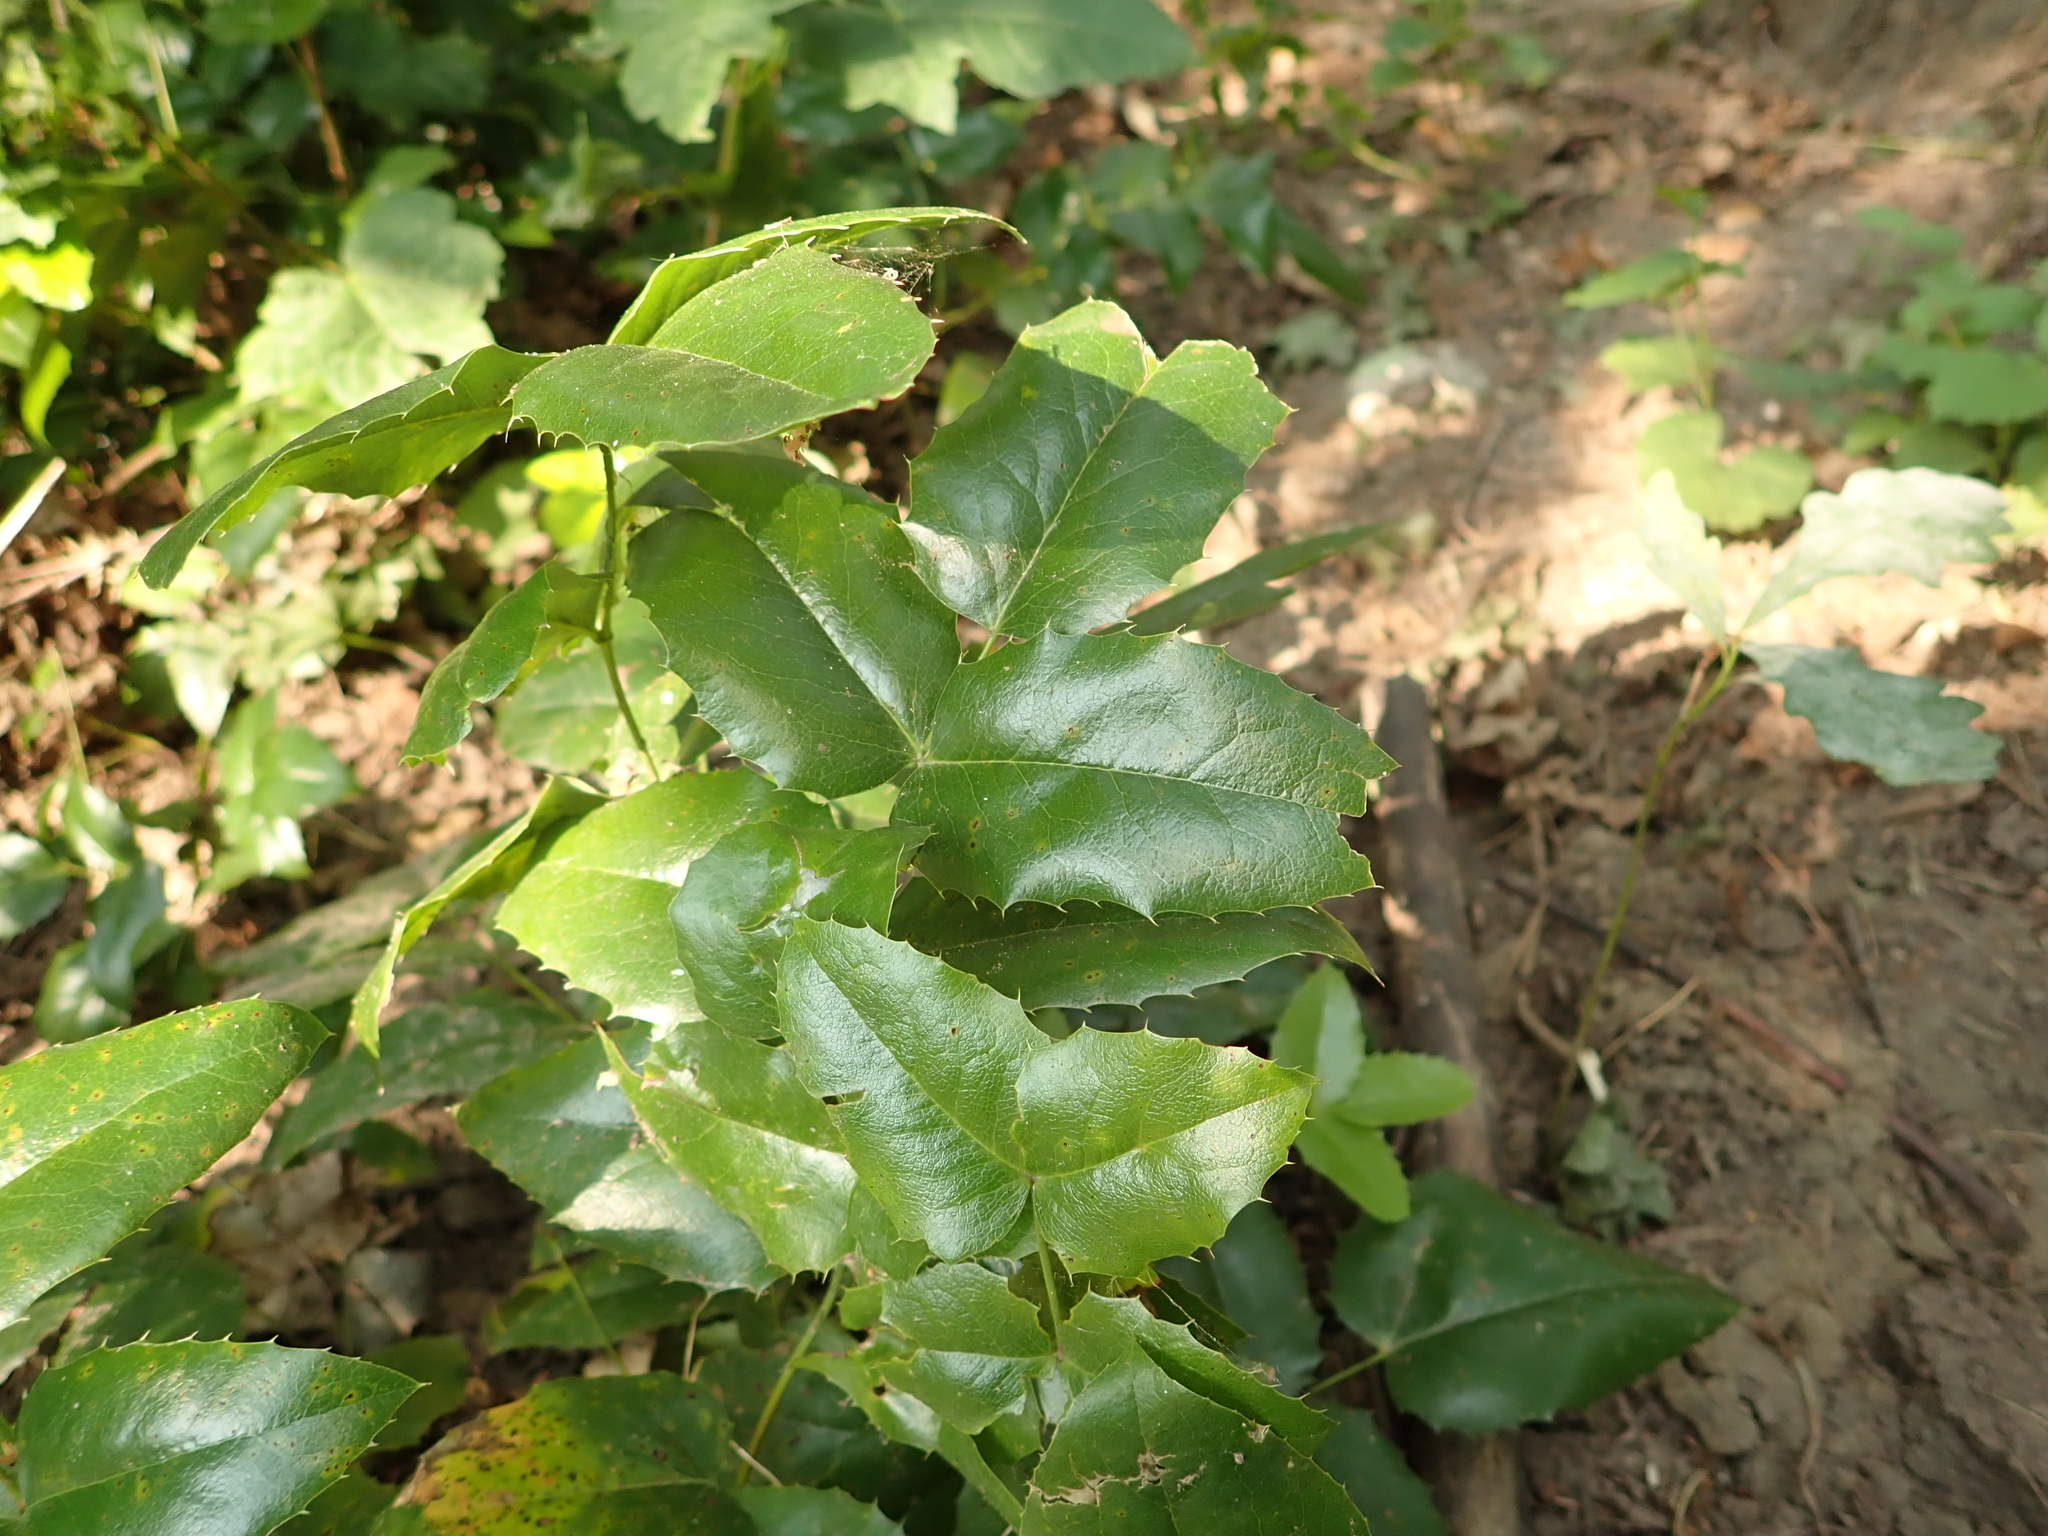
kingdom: Plantae
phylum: Tracheophyta
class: Magnoliopsida
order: Ranunculales
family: Berberidaceae
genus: Mahonia
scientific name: Mahonia aquifolium
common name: Oregon-grape
